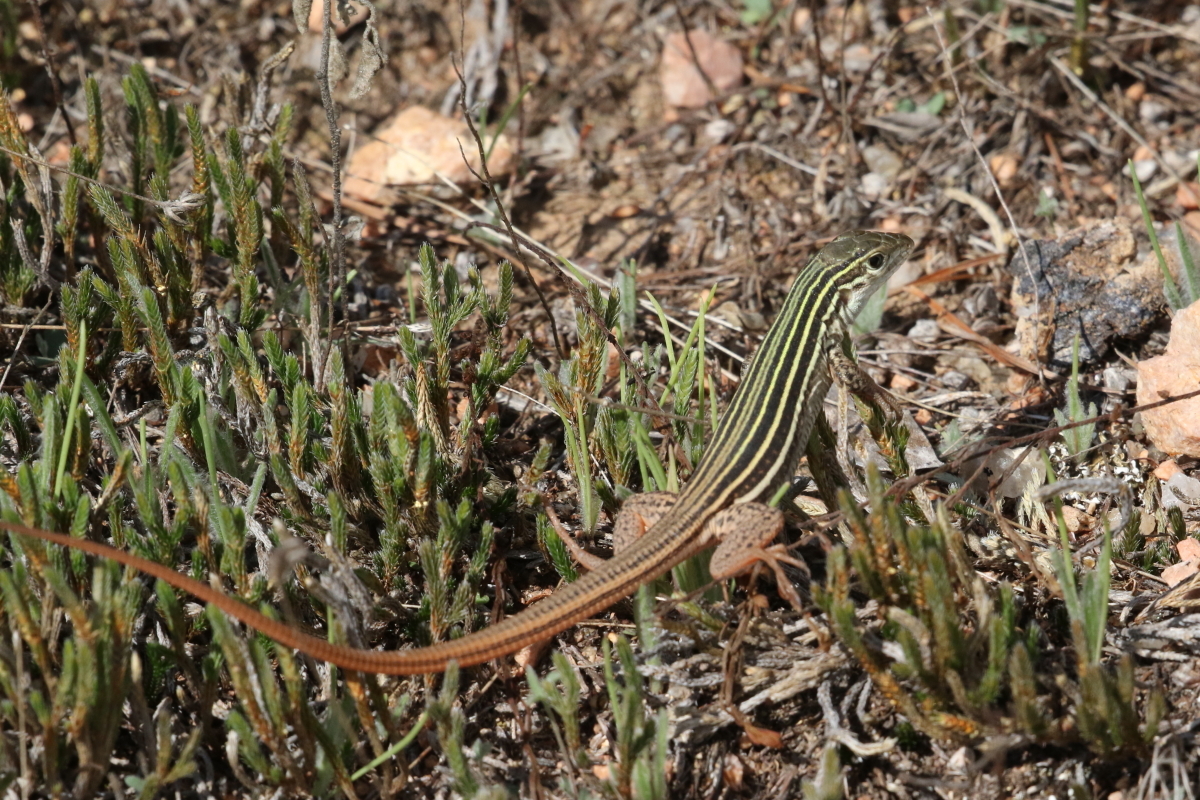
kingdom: Animalia
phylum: Chordata
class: Squamata
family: Teiidae
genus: Aspidoscelis
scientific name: Aspidoscelis gularis
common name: Eastern spotted whiptail
